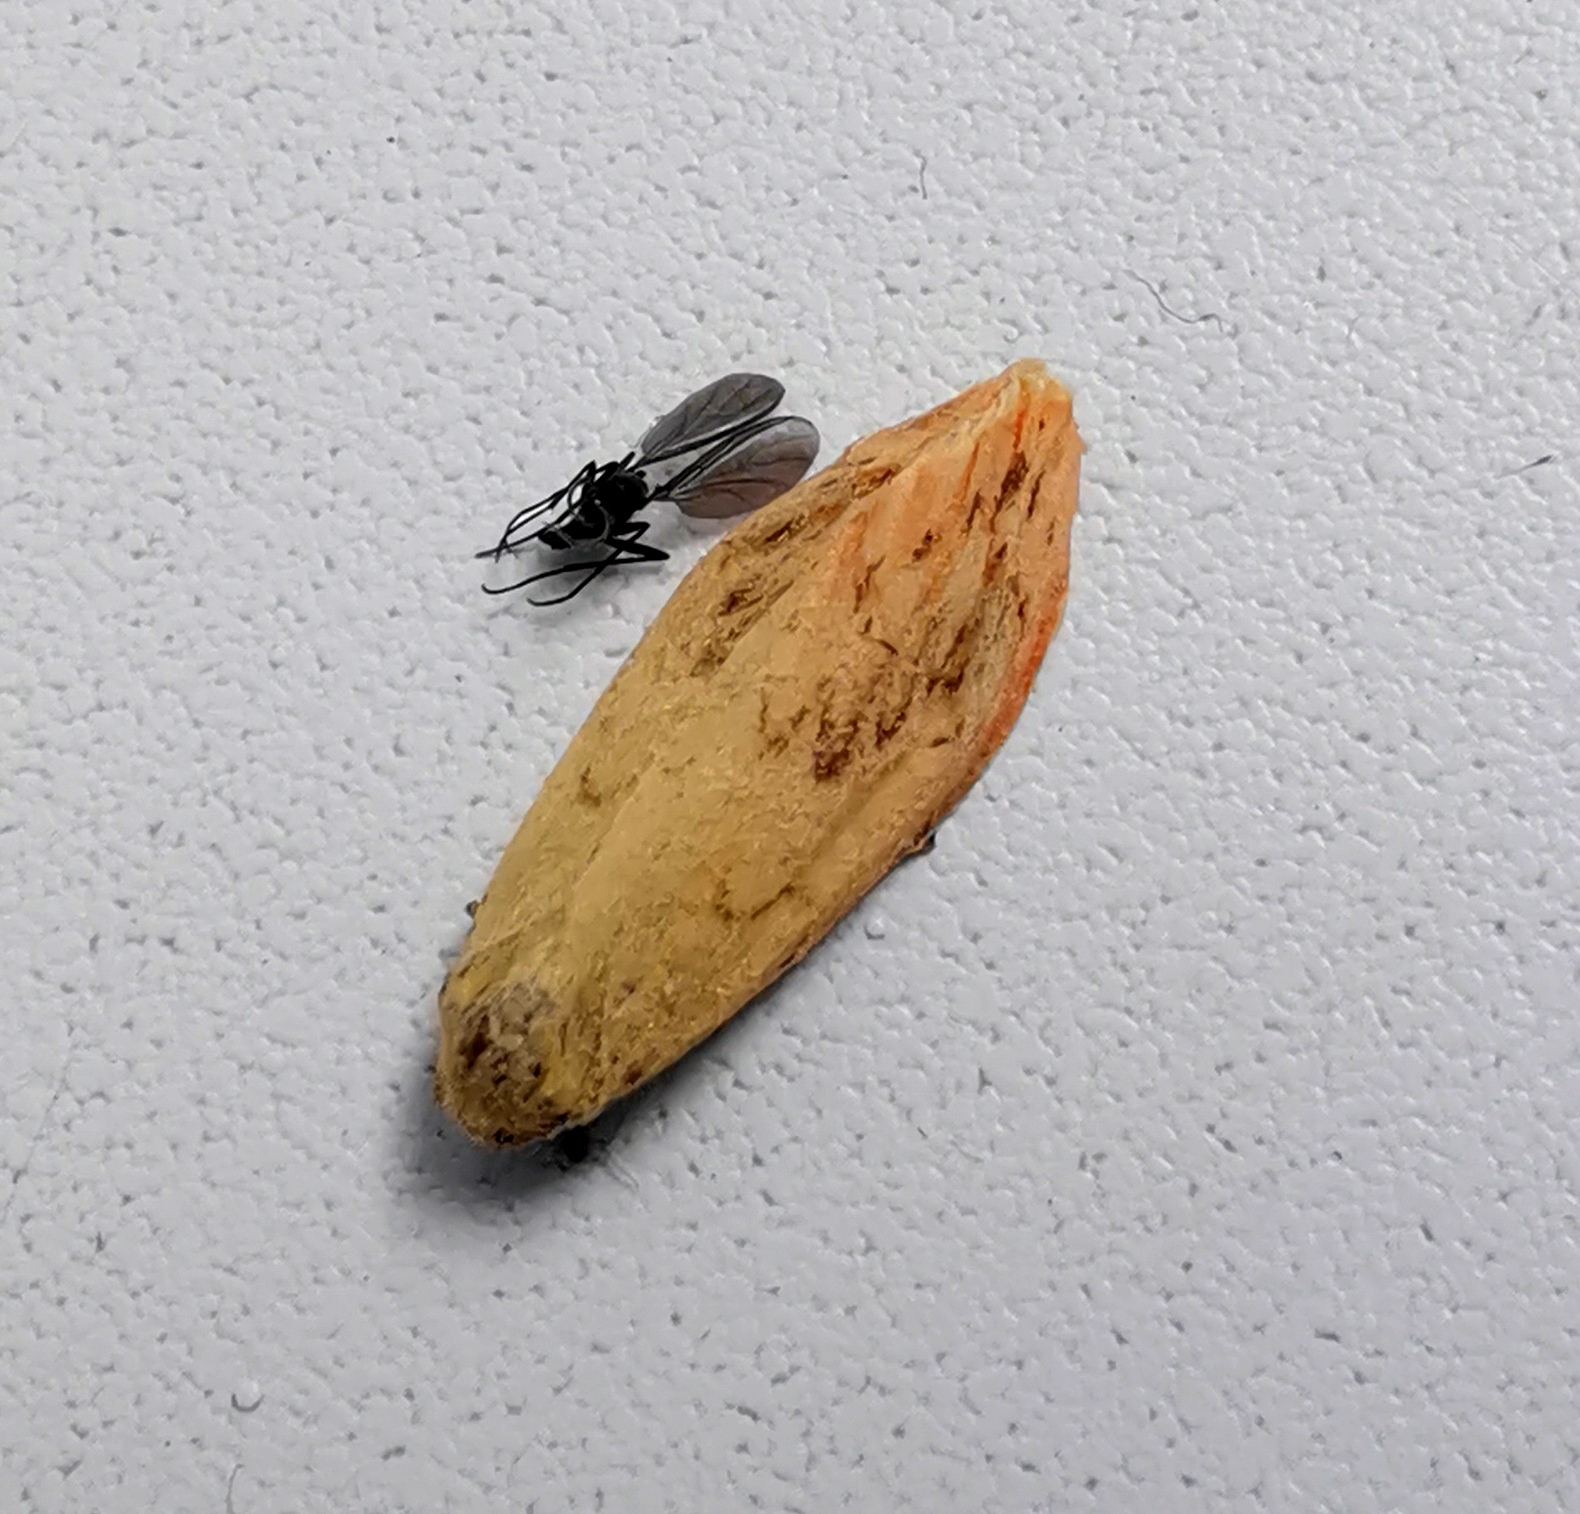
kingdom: Animalia
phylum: Arthropoda
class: Insecta
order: Lepidoptera
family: Erebidae
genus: Miltochrista
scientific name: Miltochrista miniata
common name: Rosy footman
